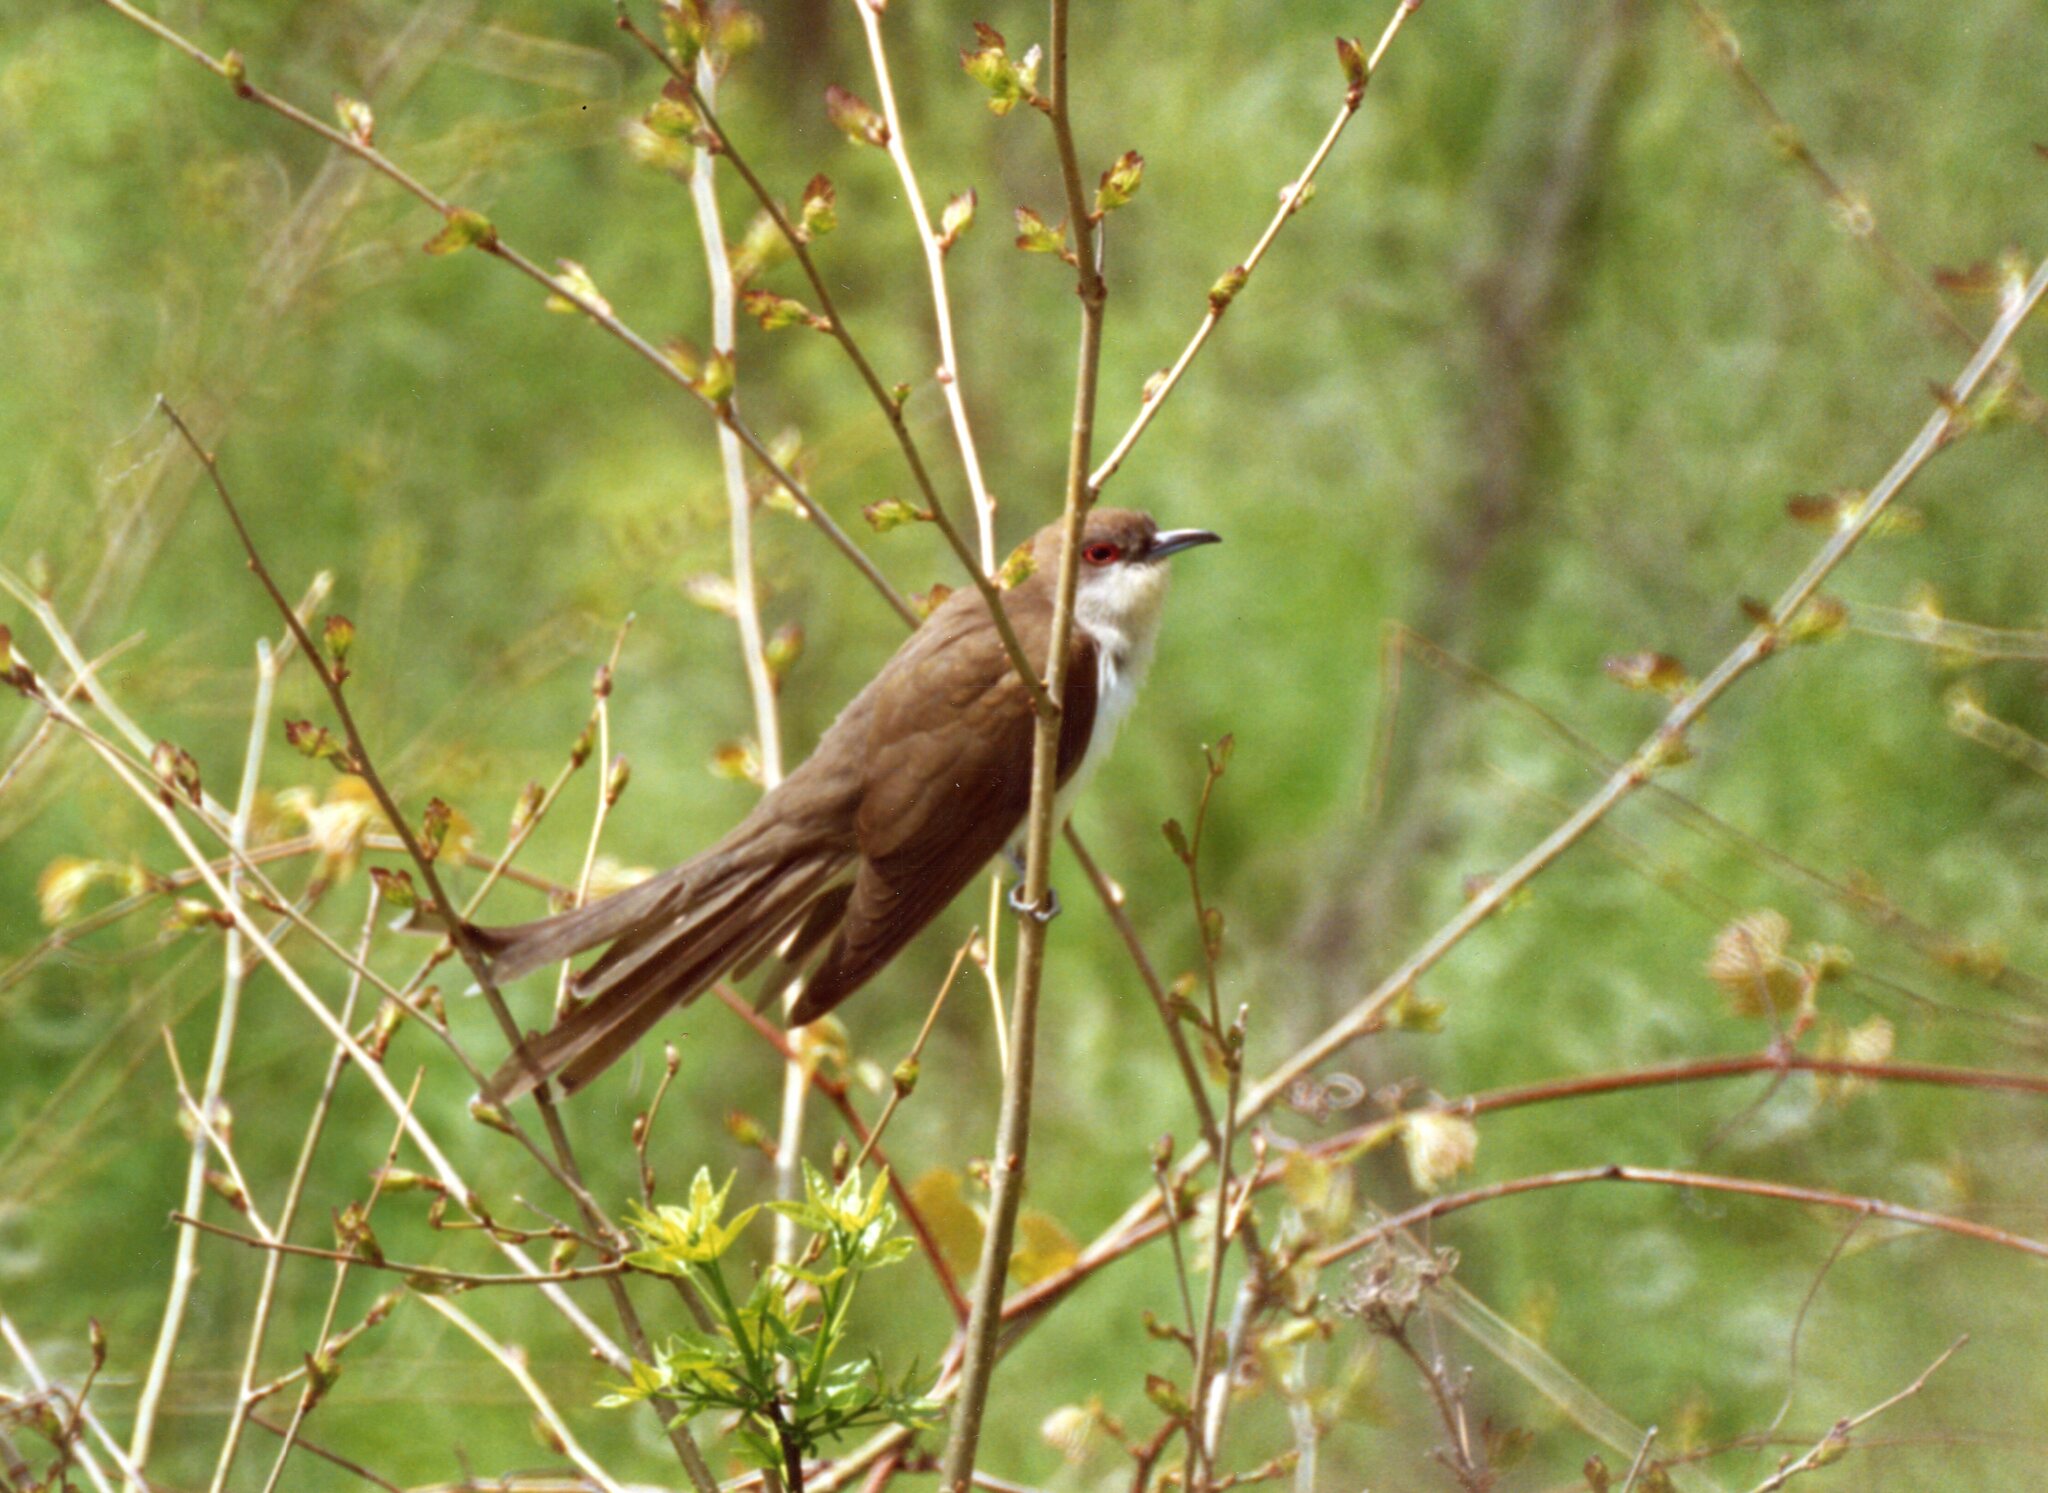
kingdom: Animalia
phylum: Chordata
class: Aves
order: Cuculiformes
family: Cuculidae
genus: Coccyzus
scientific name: Coccyzus erythropthalmus
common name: Black-billed cuckoo
